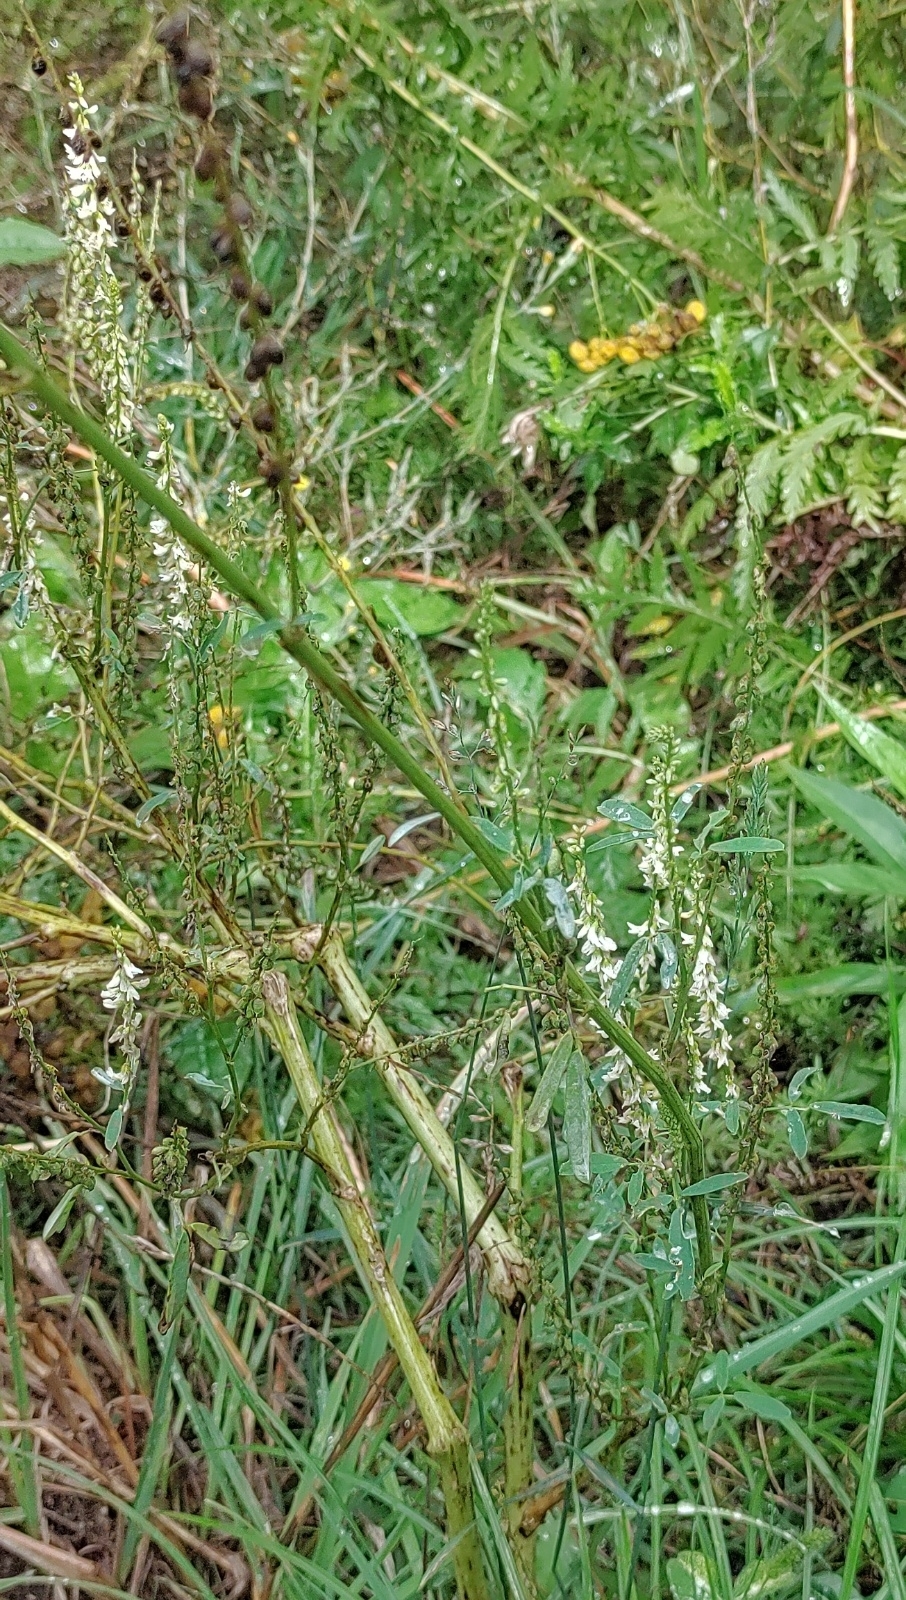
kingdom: Plantae
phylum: Tracheophyta
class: Magnoliopsida
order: Fabales
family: Fabaceae
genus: Melilotus
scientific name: Melilotus albus
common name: White melilot
